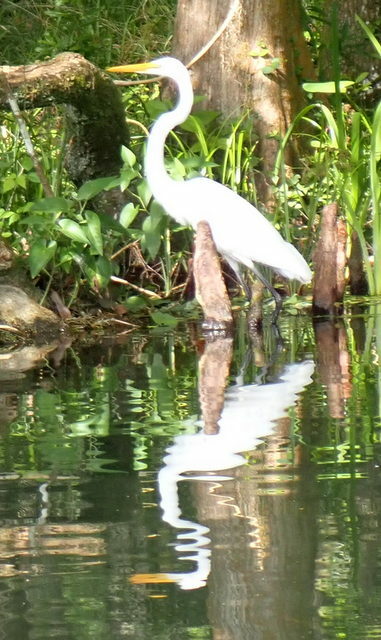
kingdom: Animalia
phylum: Chordata
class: Aves
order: Pelecaniformes
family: Ardeidae
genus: Ardea
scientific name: Ardea alba
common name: Great egret
